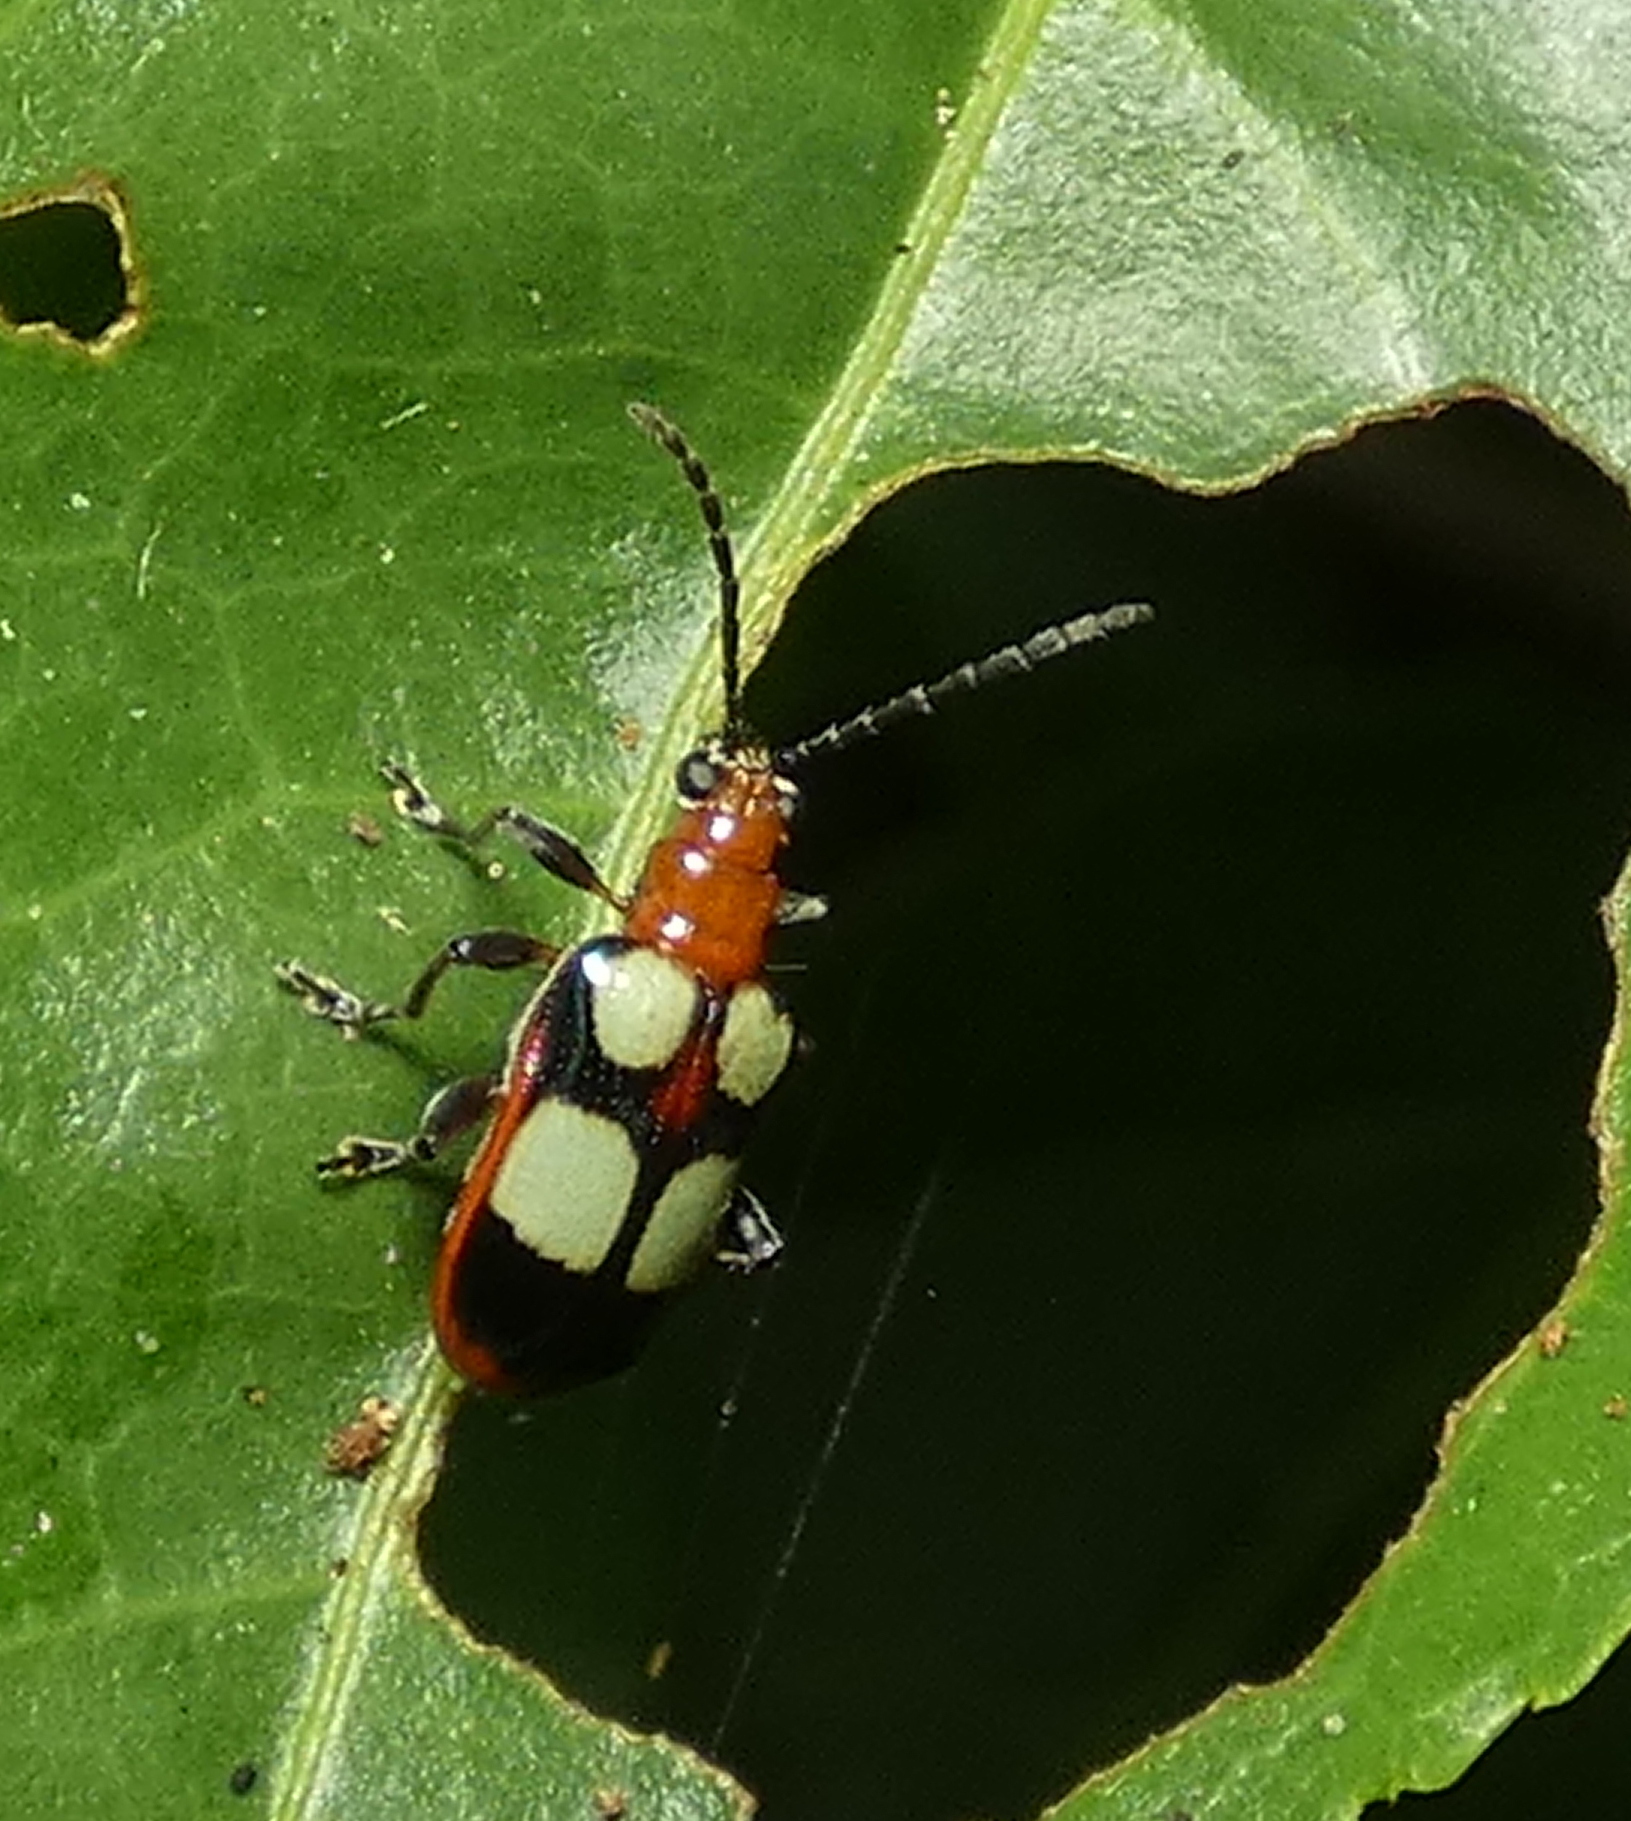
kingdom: Animalia
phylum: Arthropoda
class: Insecta
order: Coleoptera
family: Chrysomelidae
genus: Neolema
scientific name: Neolema
